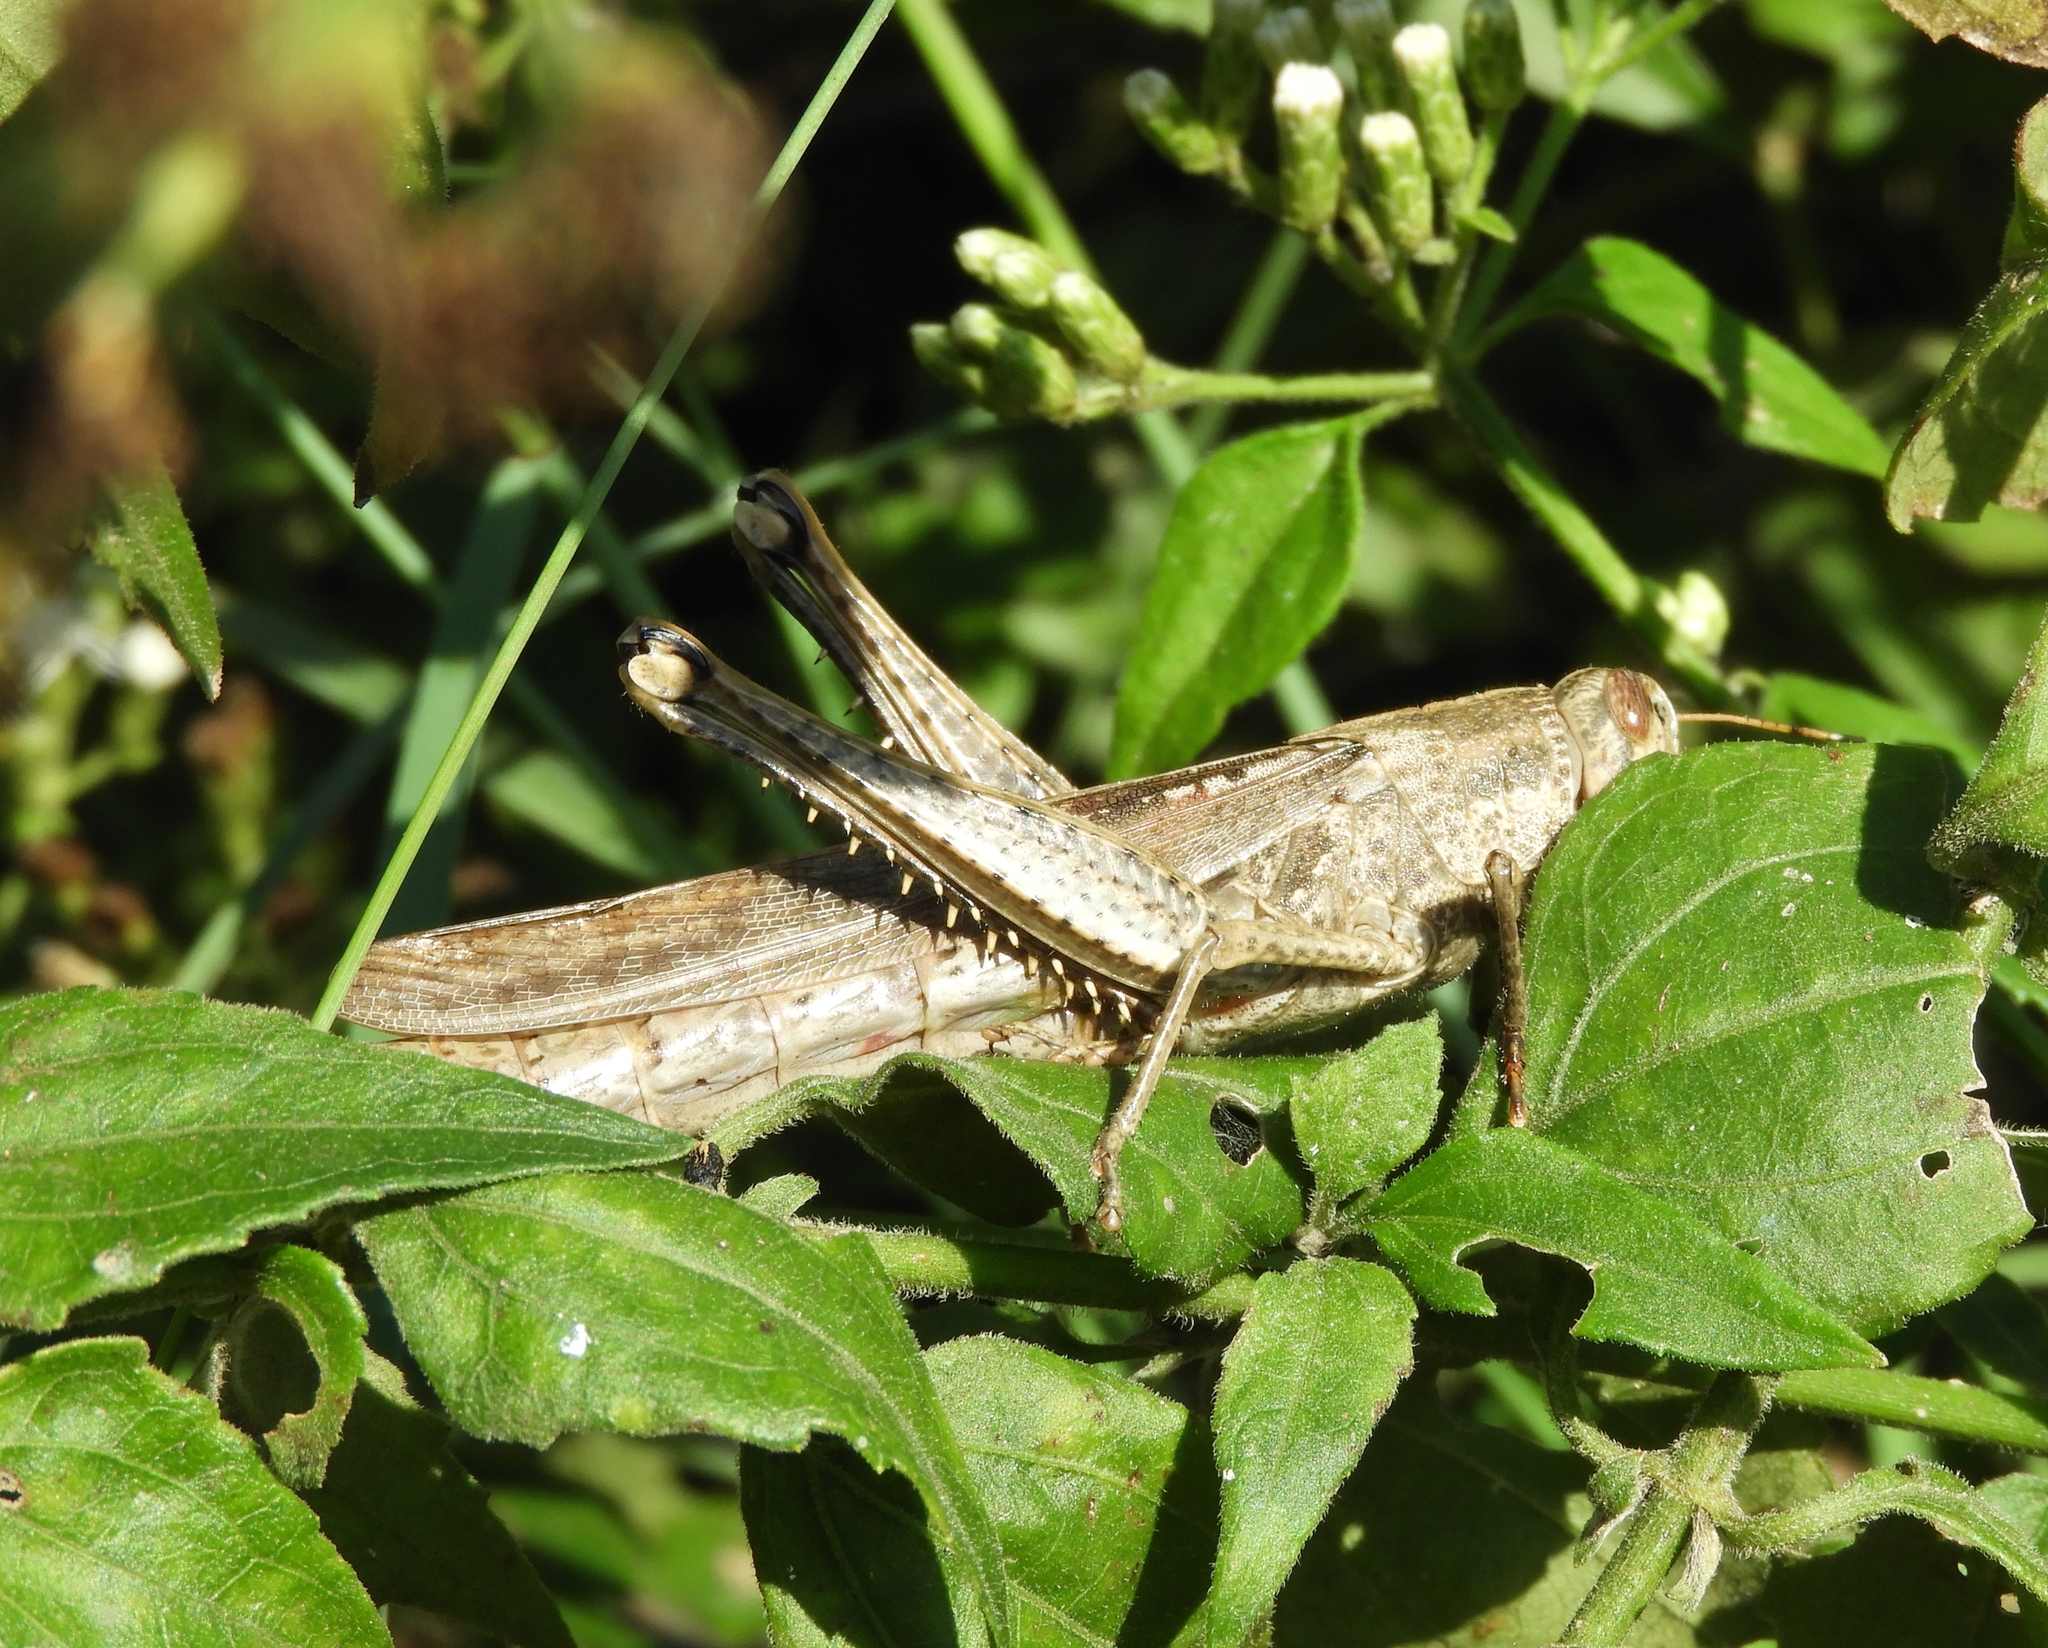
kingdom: Animalia
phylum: Arthropoda
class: Insecta
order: Orthoptera
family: Acrididae
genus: Schistocerca
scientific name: Schistocerca camerata
